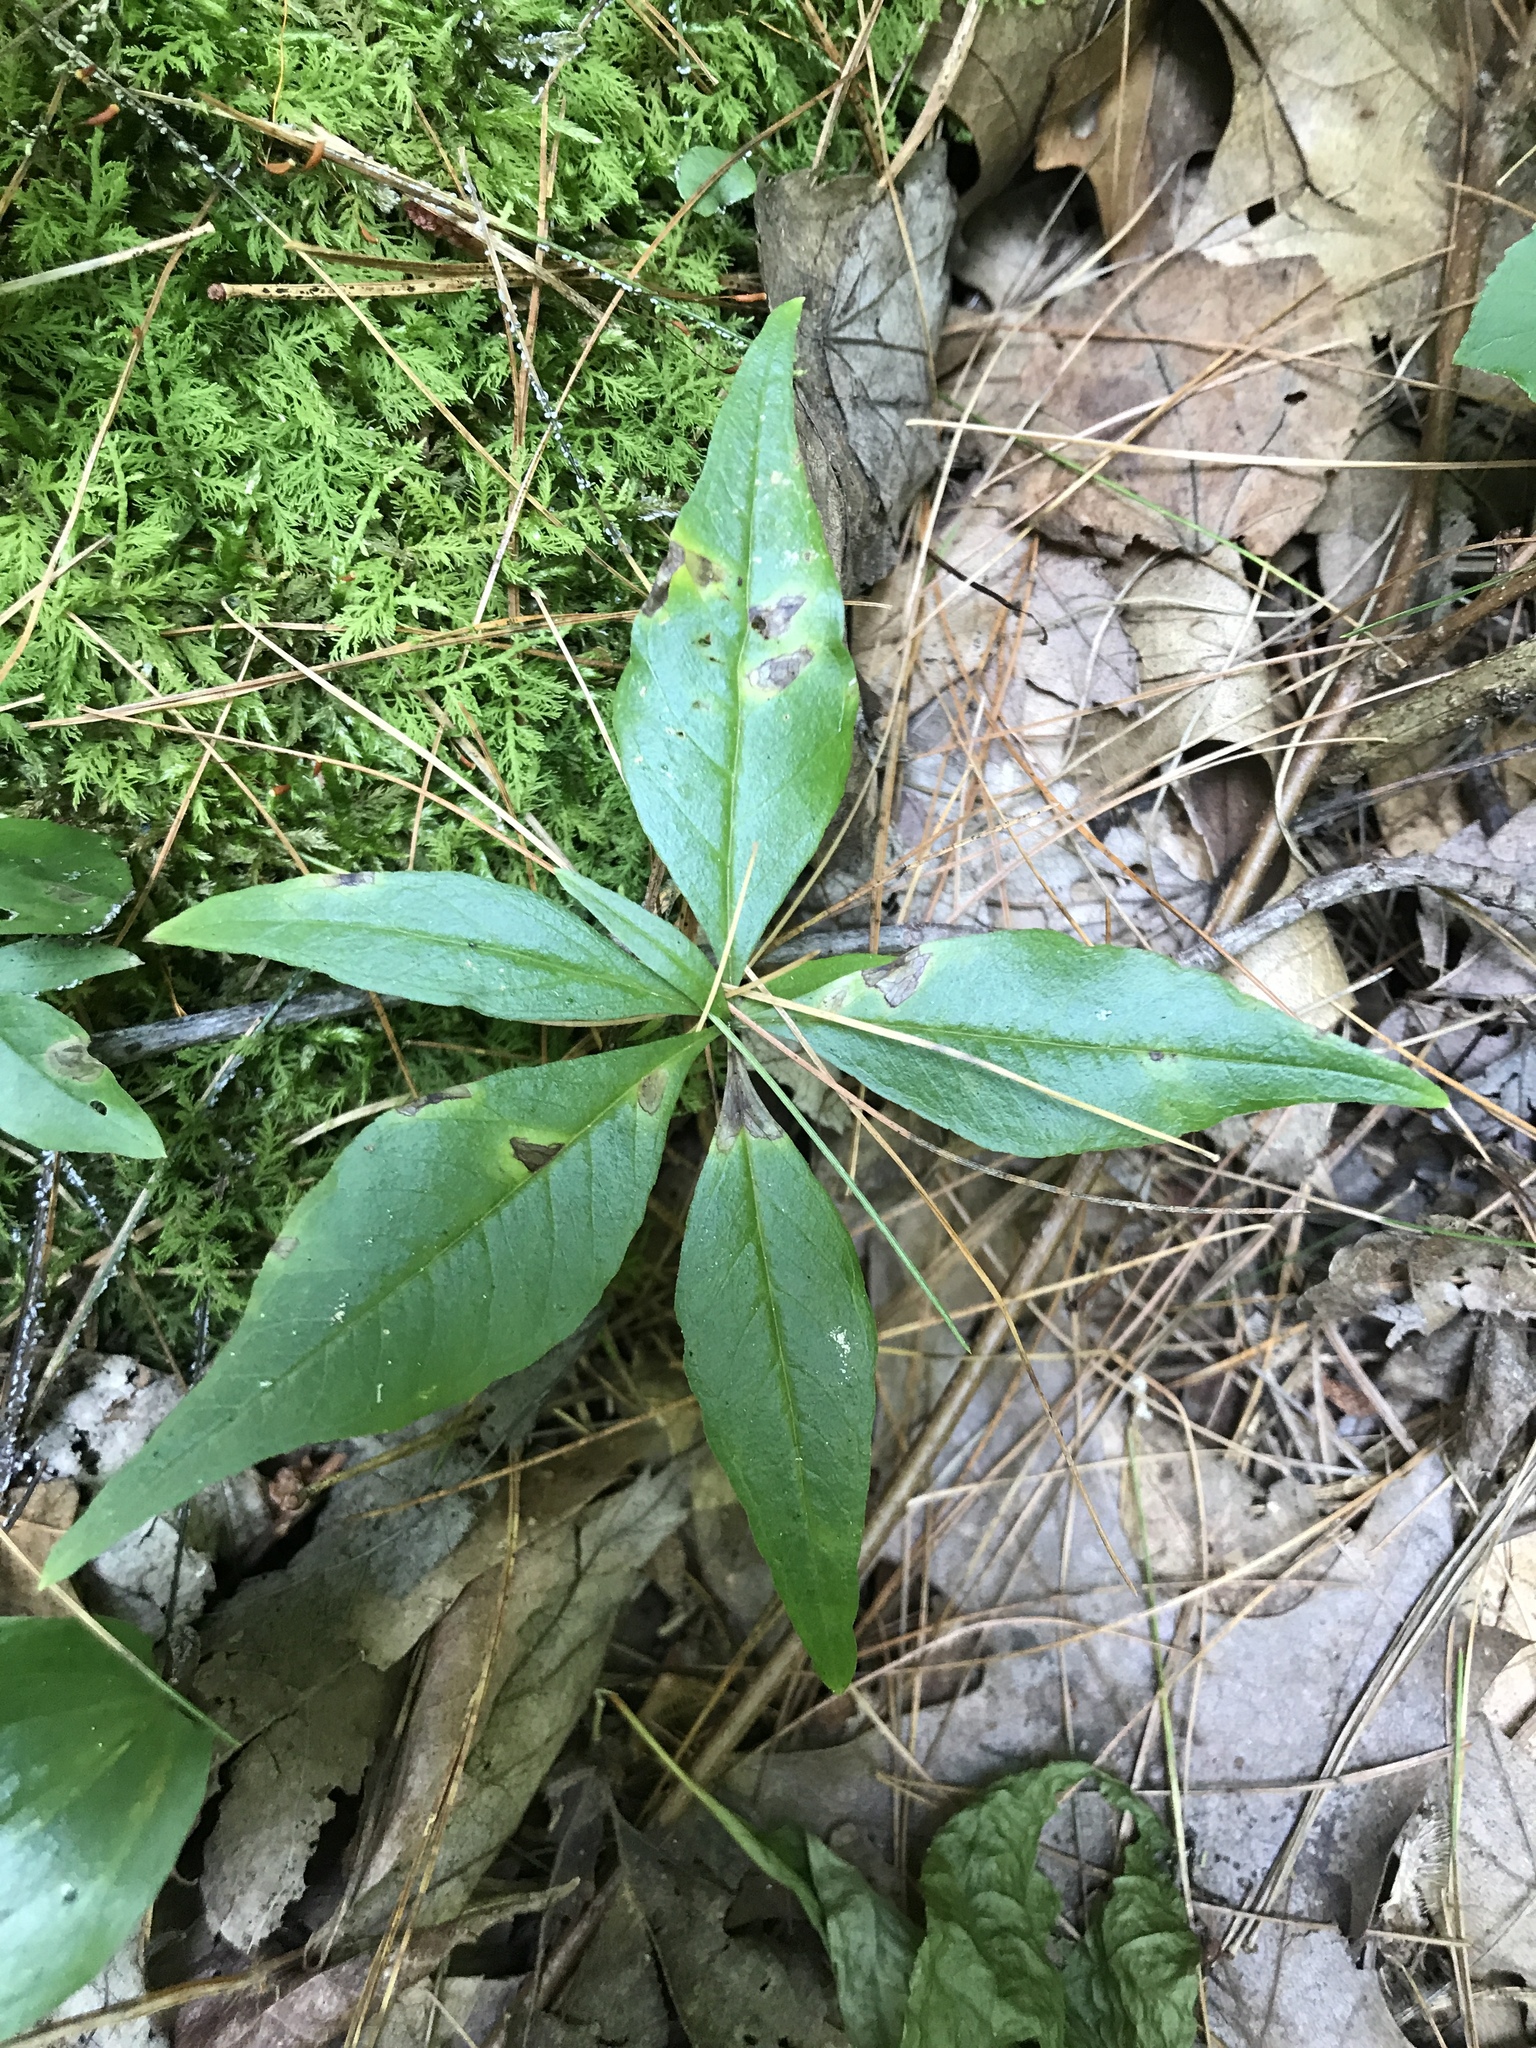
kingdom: Plantae
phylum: Tracheophyta
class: Magnoliopsida
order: Ericales
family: Primulaceae
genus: Lysimachia
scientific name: Lysimachia borealis
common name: American starflower
